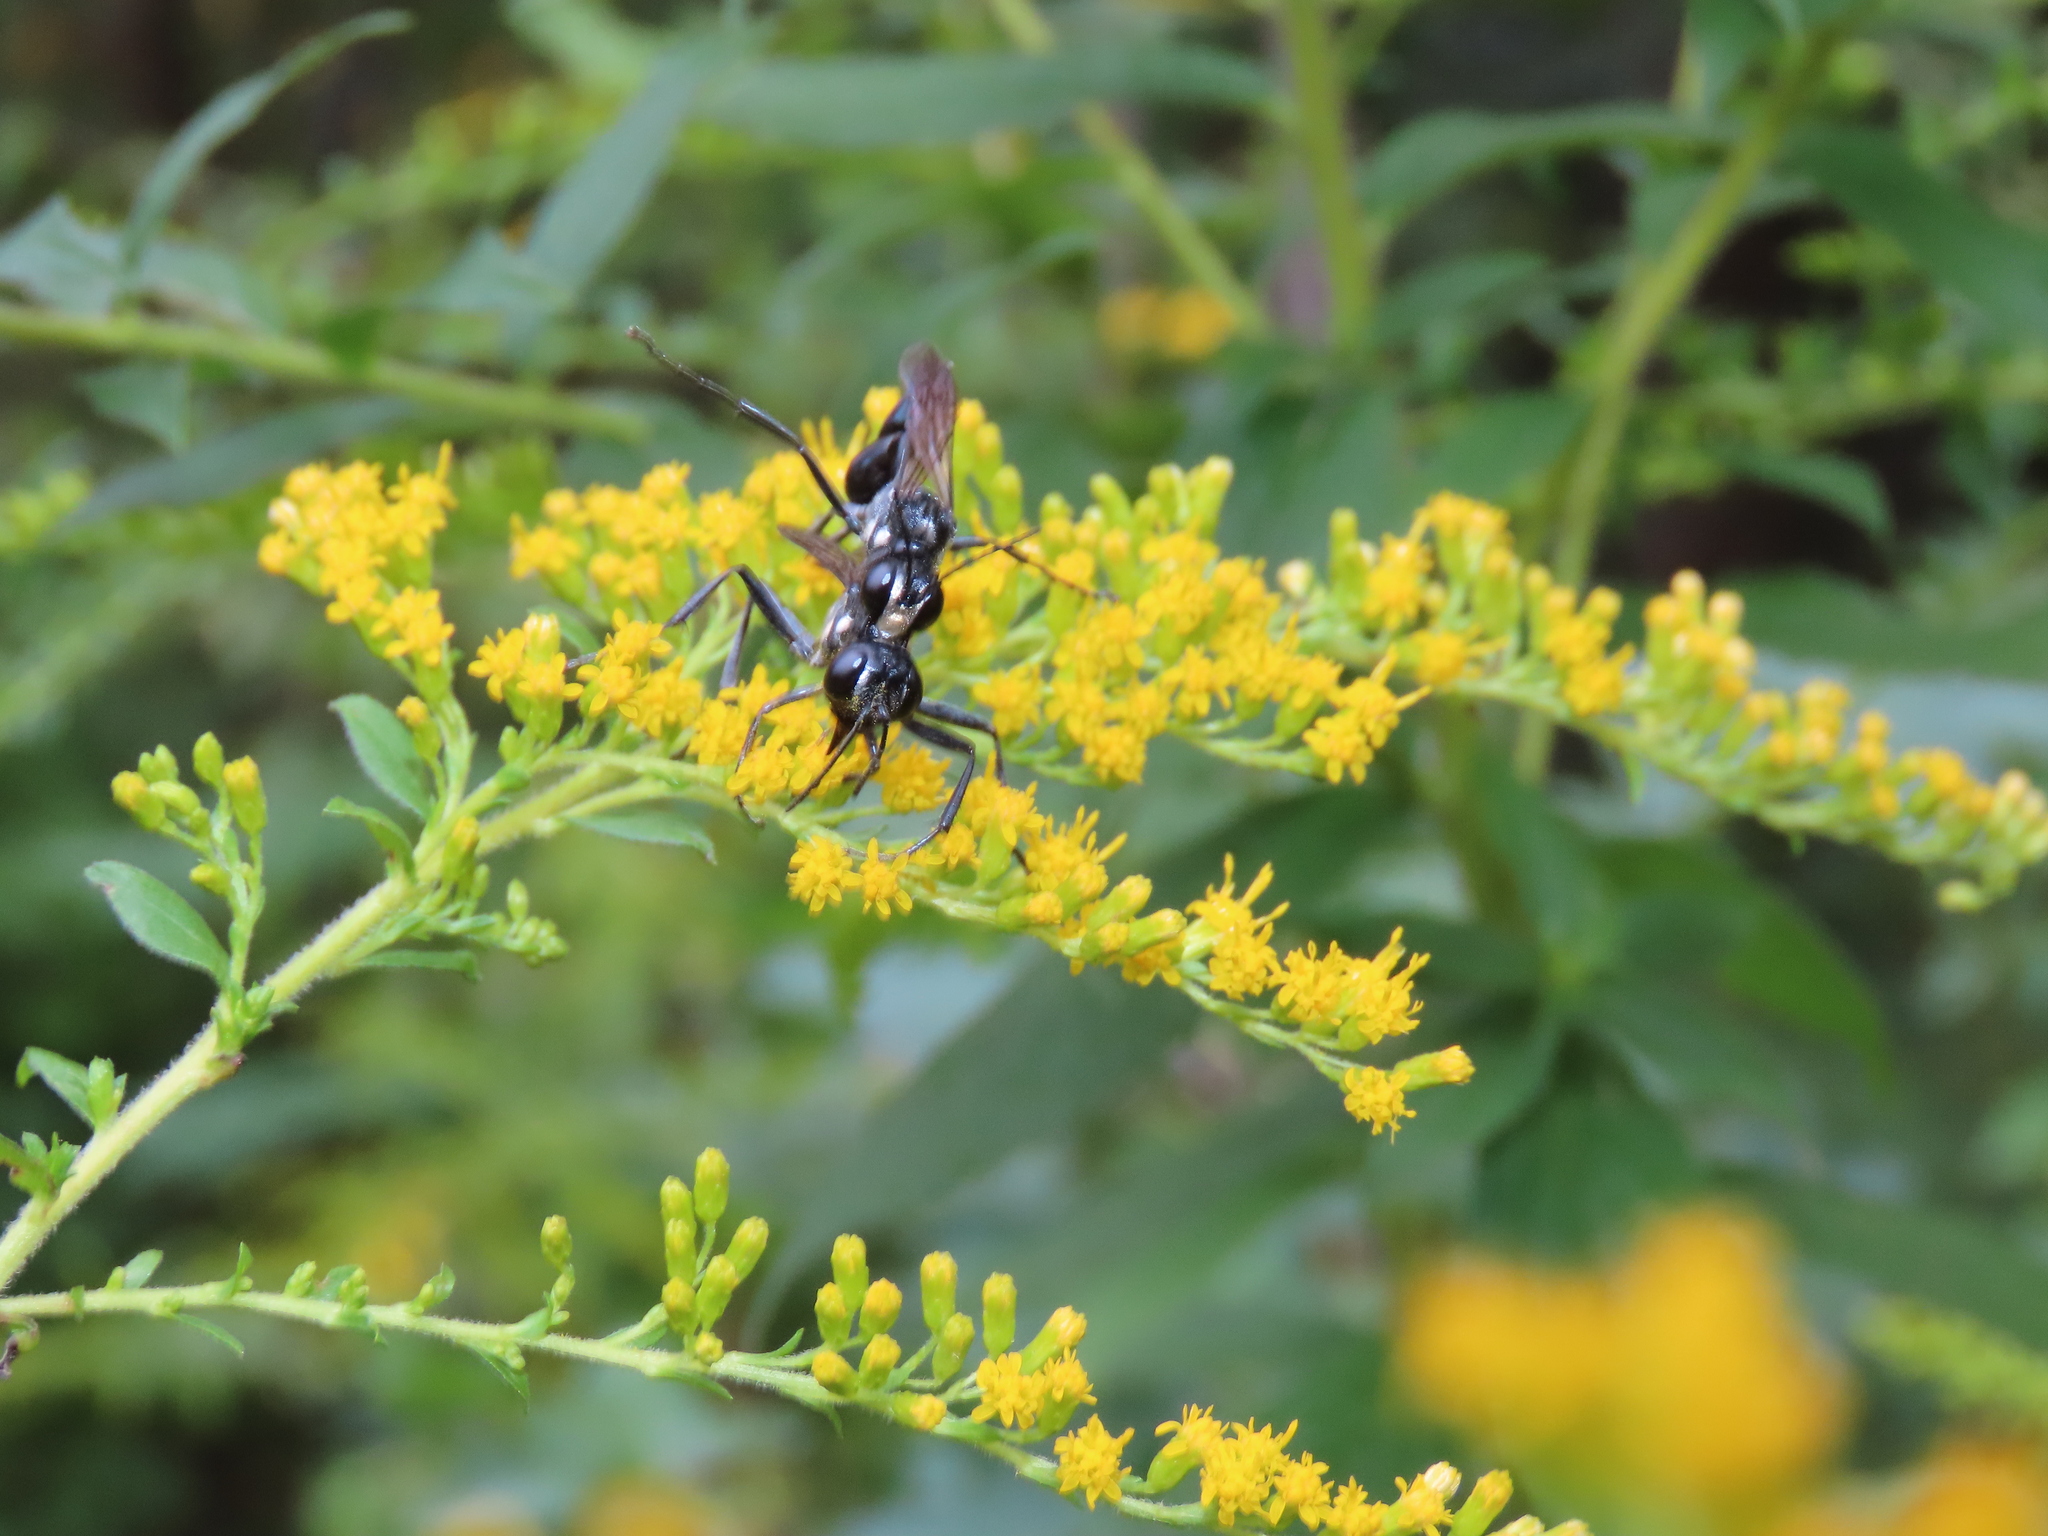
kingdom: Animalia
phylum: Arthropoda
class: Insecta
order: Hymenoptera
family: Sphecidae
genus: Eremnophila
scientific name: Eremnophila aureonotata
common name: Gold-marked thread-waisted wasp
